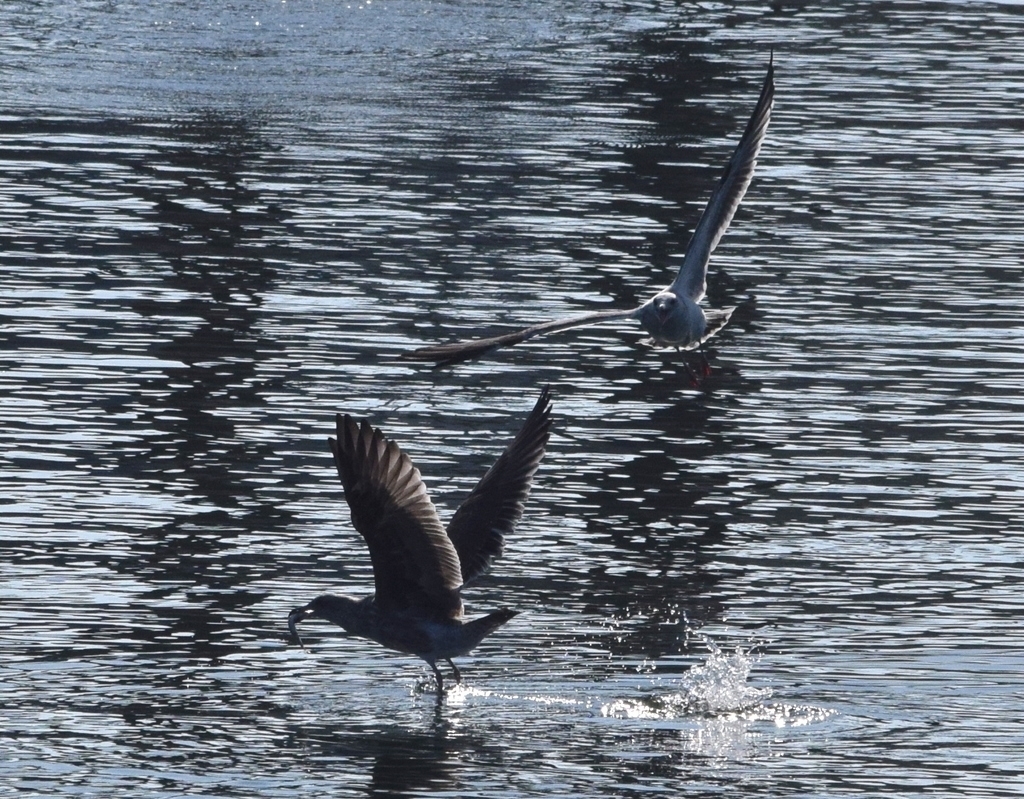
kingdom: Animalia
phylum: Chordata
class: Aves
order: Charadriiformes
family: Laridae
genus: Larus
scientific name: Larus occidentalis
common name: Western gull
